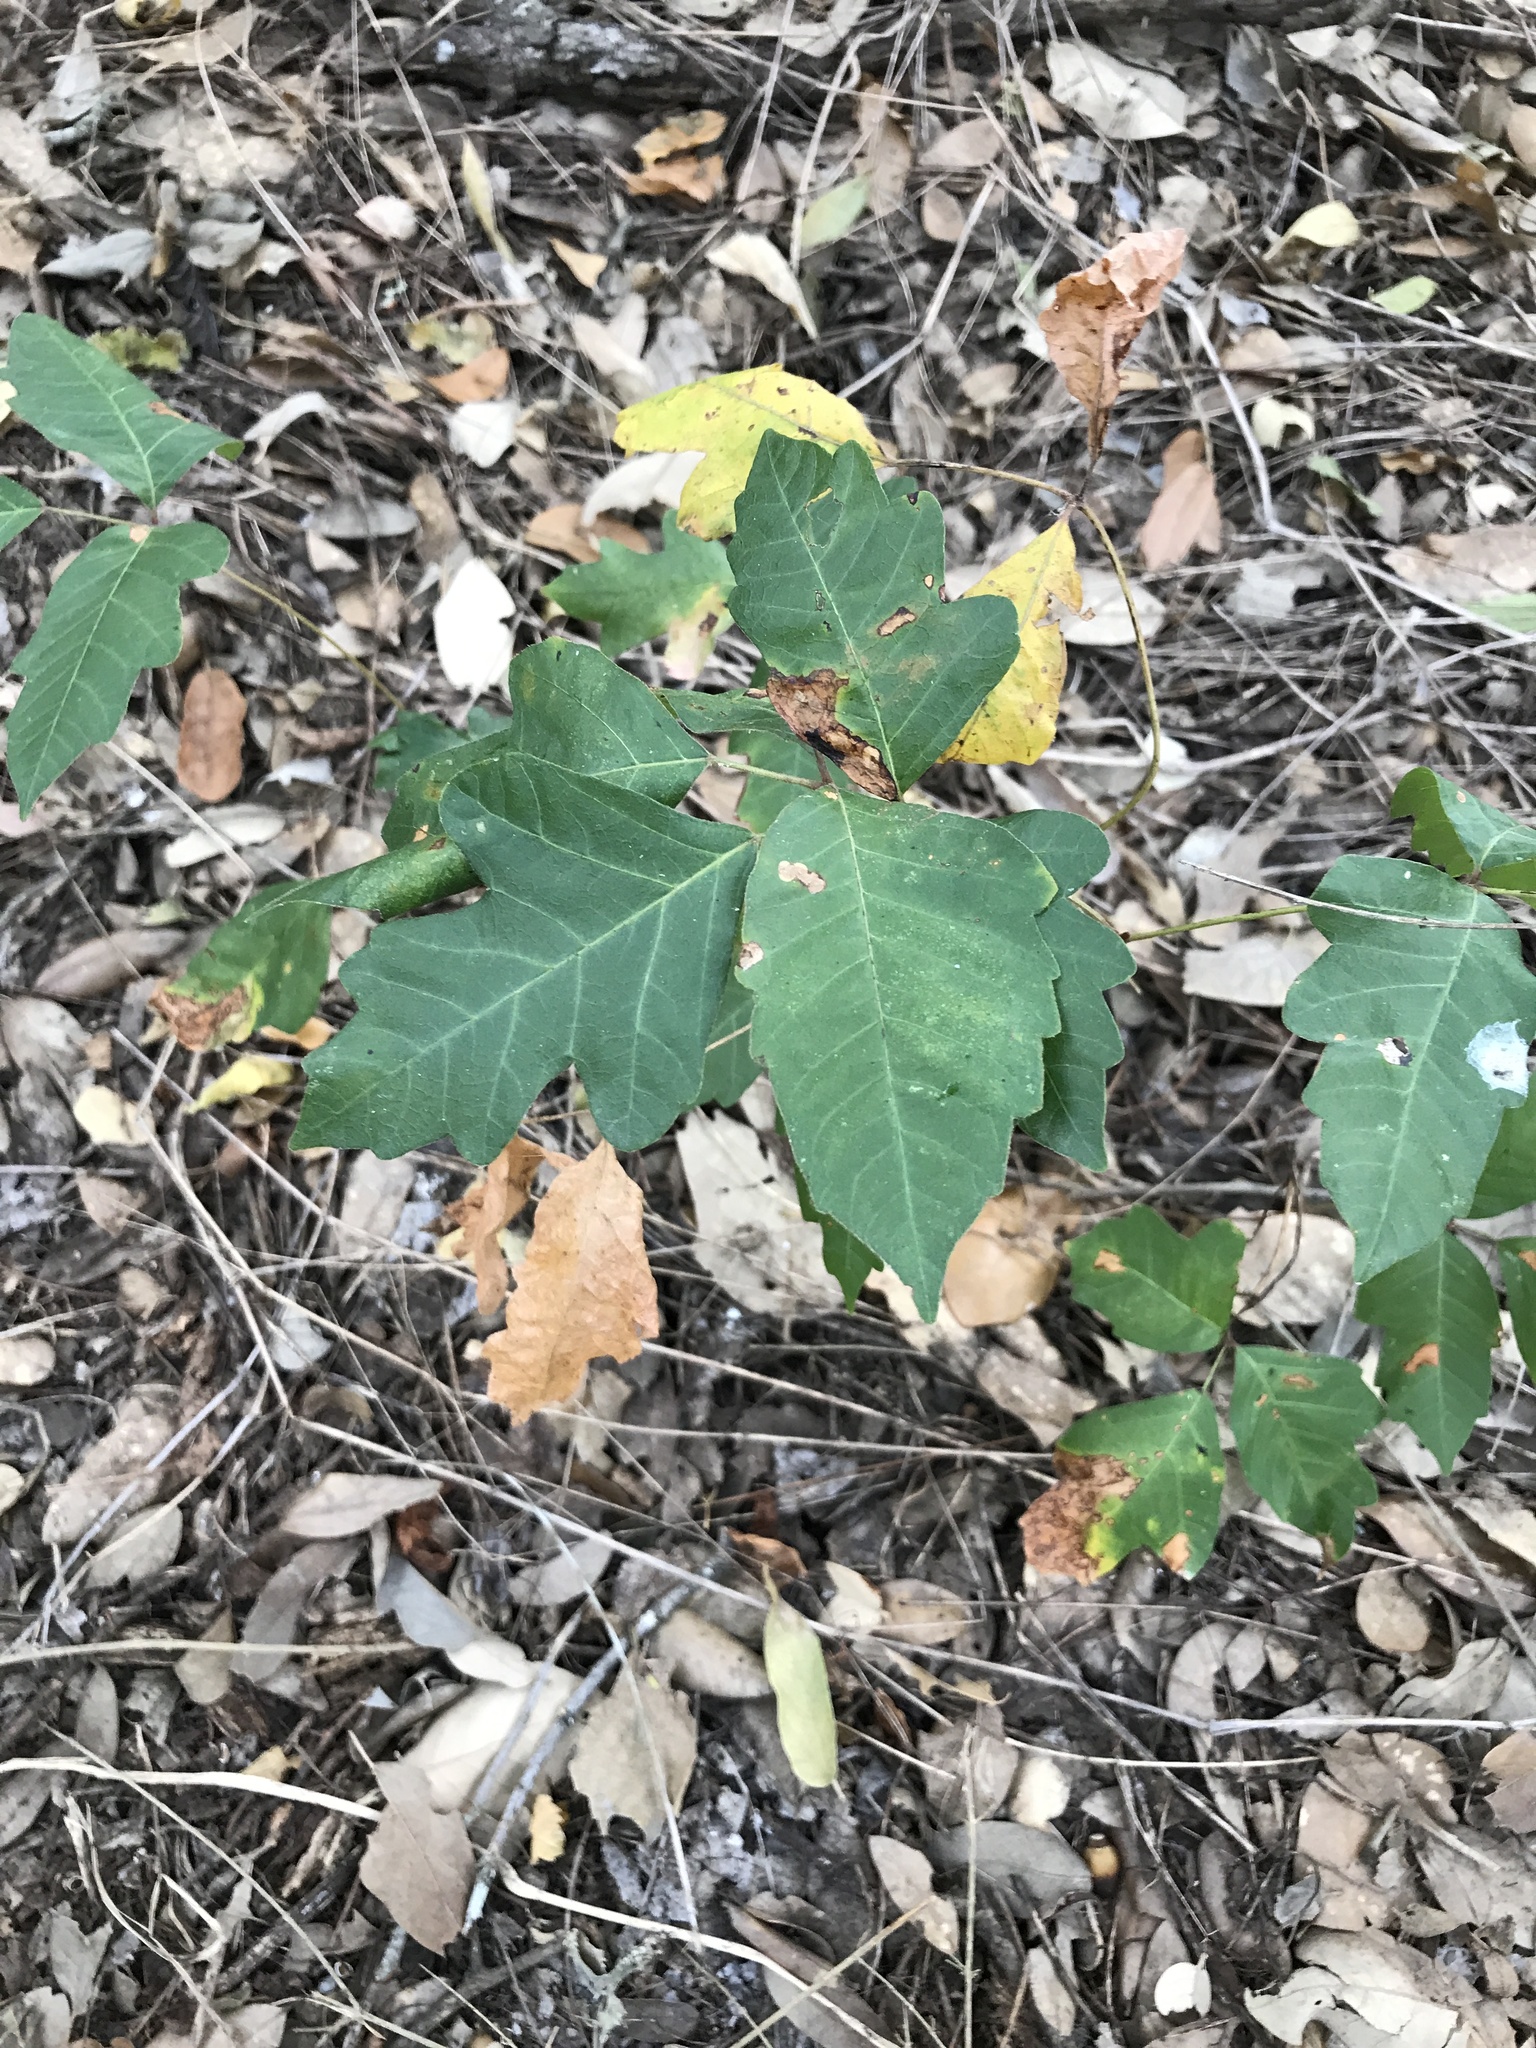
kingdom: Plantae
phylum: Tracheophyta
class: Magnoliopsida
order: Sapindales
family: Anacardiaceae
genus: Toxicodendron
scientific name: Toxicodendron radicans
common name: Poison ivy
